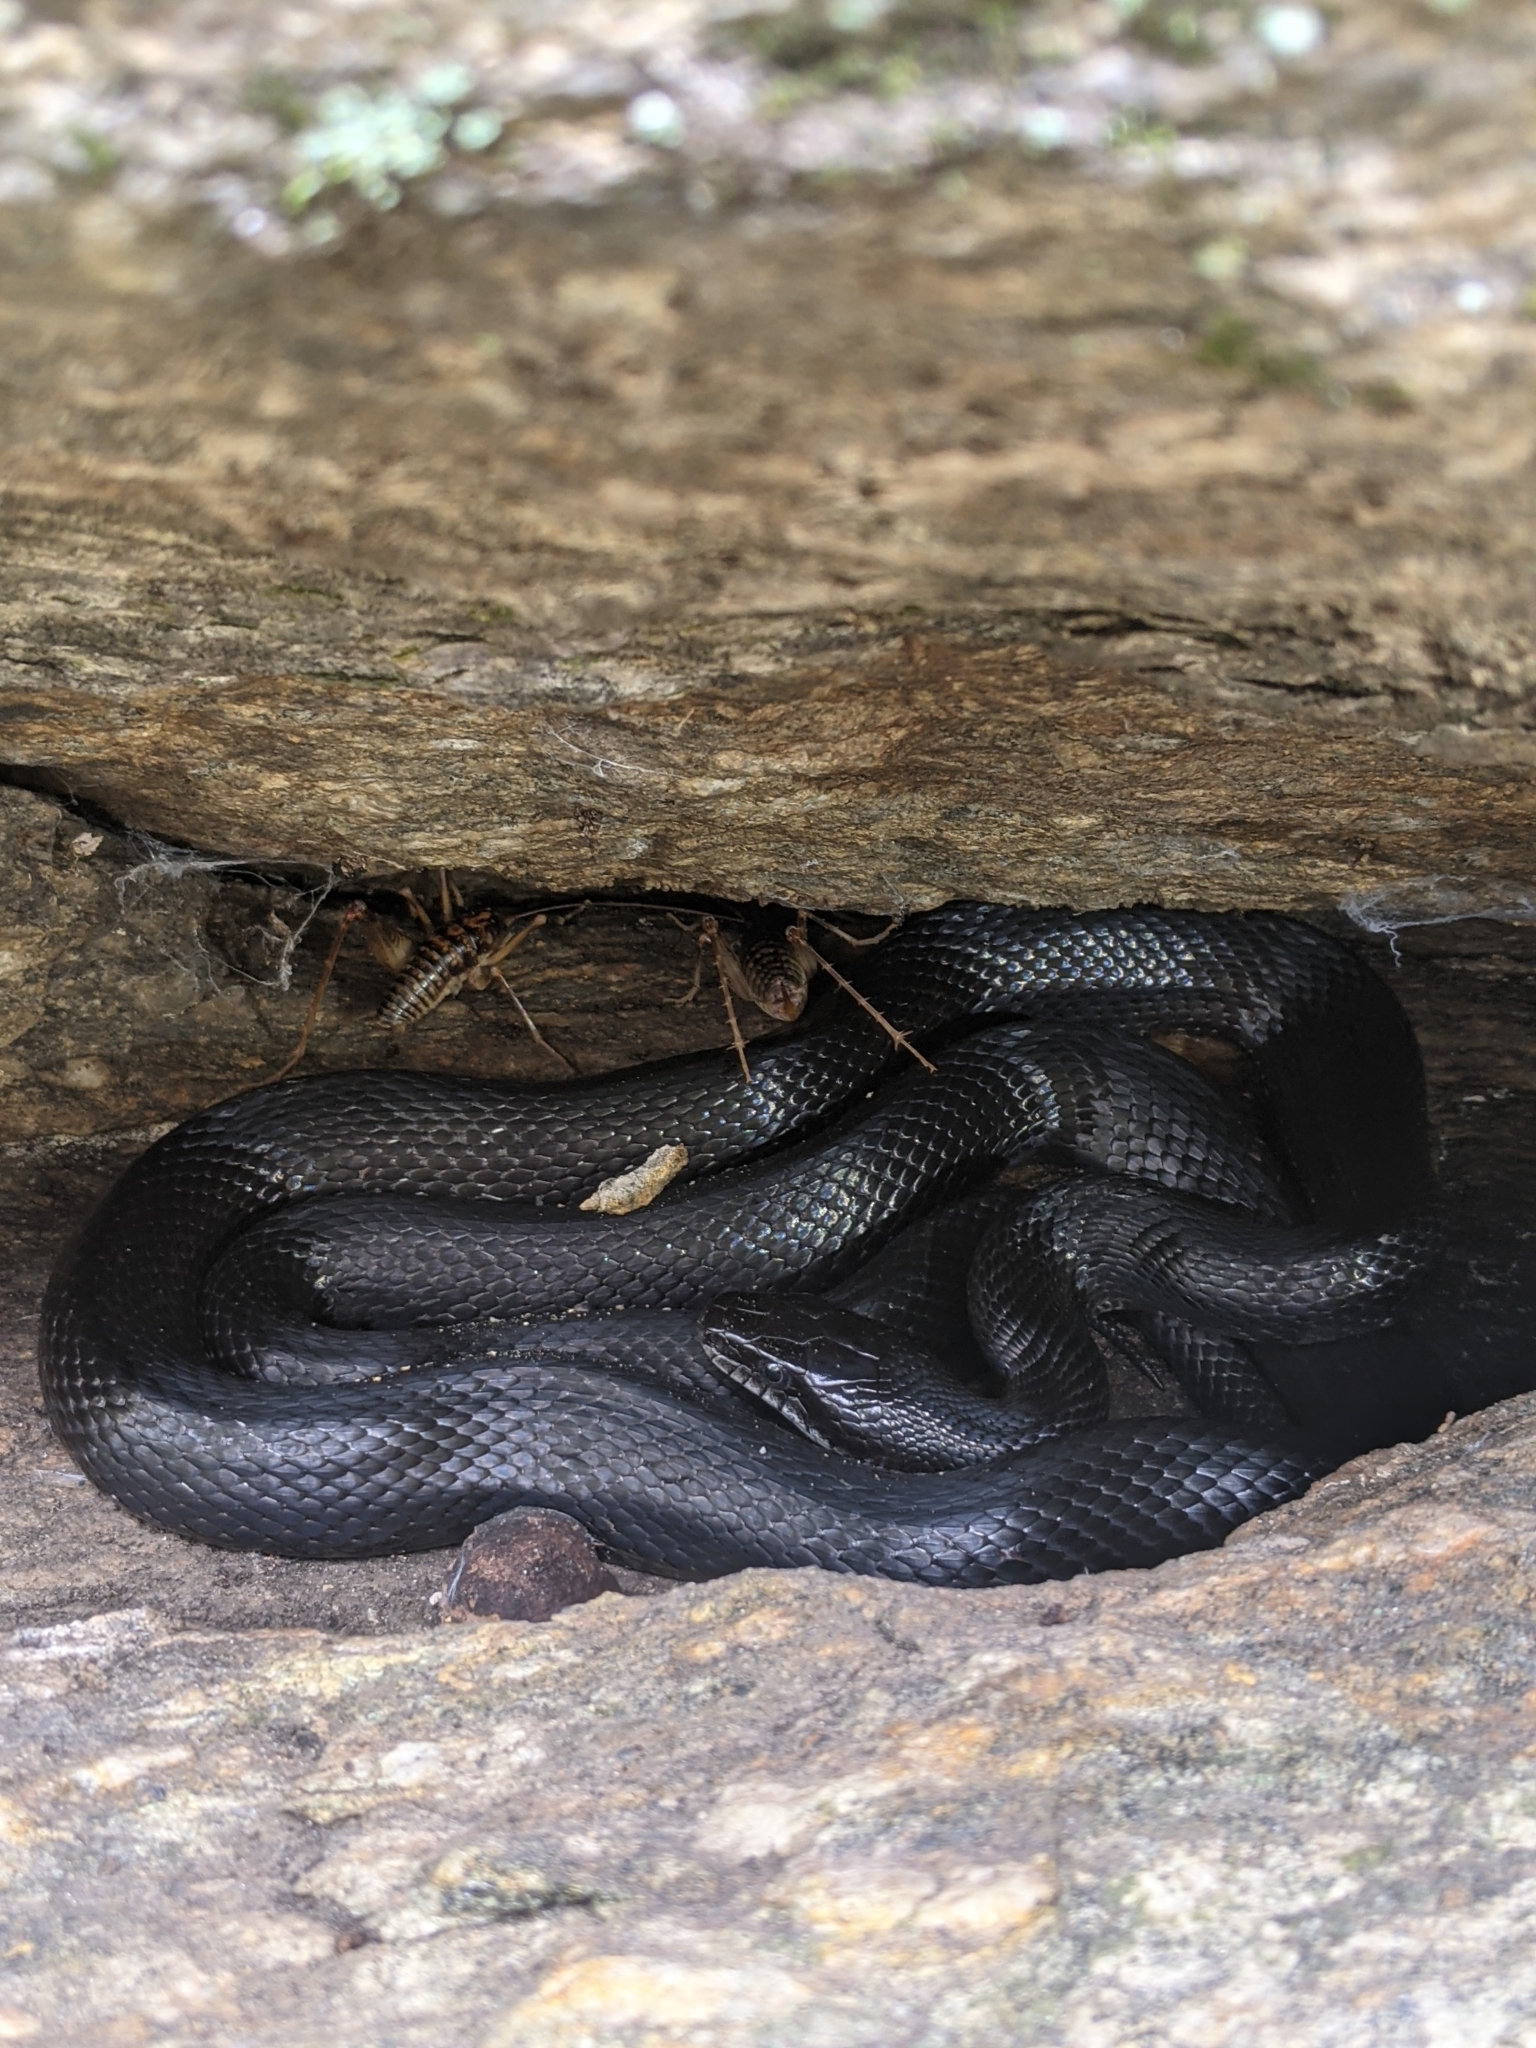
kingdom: Animalia
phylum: Chordata
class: Squamata
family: Colubridae
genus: Pantherophis
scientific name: Pantherophis alleghaniensis
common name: Eastern rat snake
